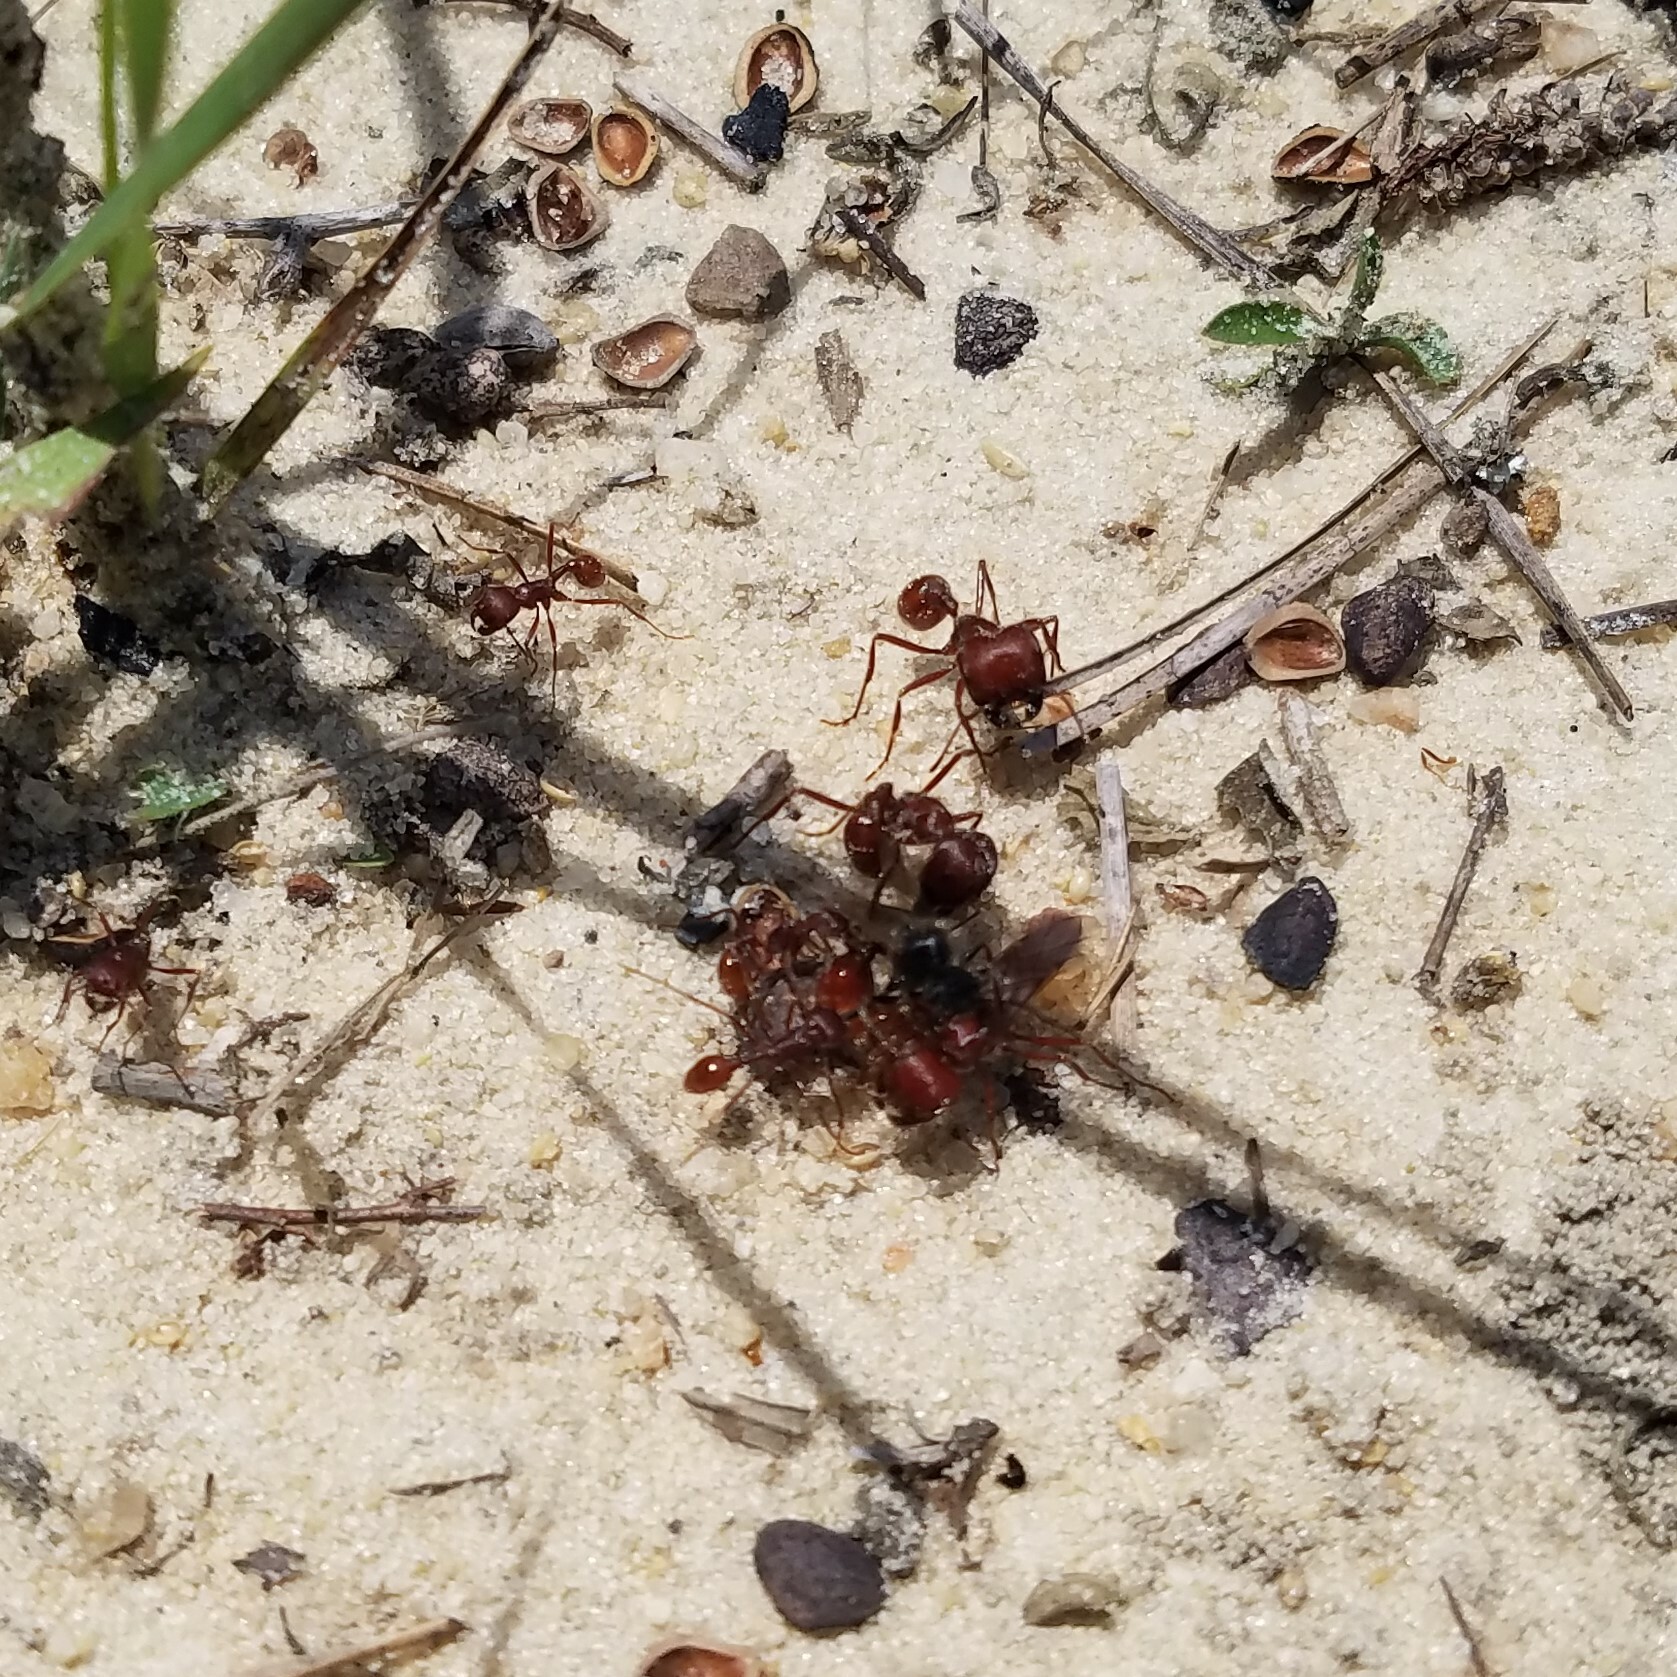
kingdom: Animalia
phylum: Arthropoda
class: Insecta
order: Hymenoptera
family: Formicidae
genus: Pogonomyrmex
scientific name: Pogonomyrmex badius
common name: Florida harvester ant
